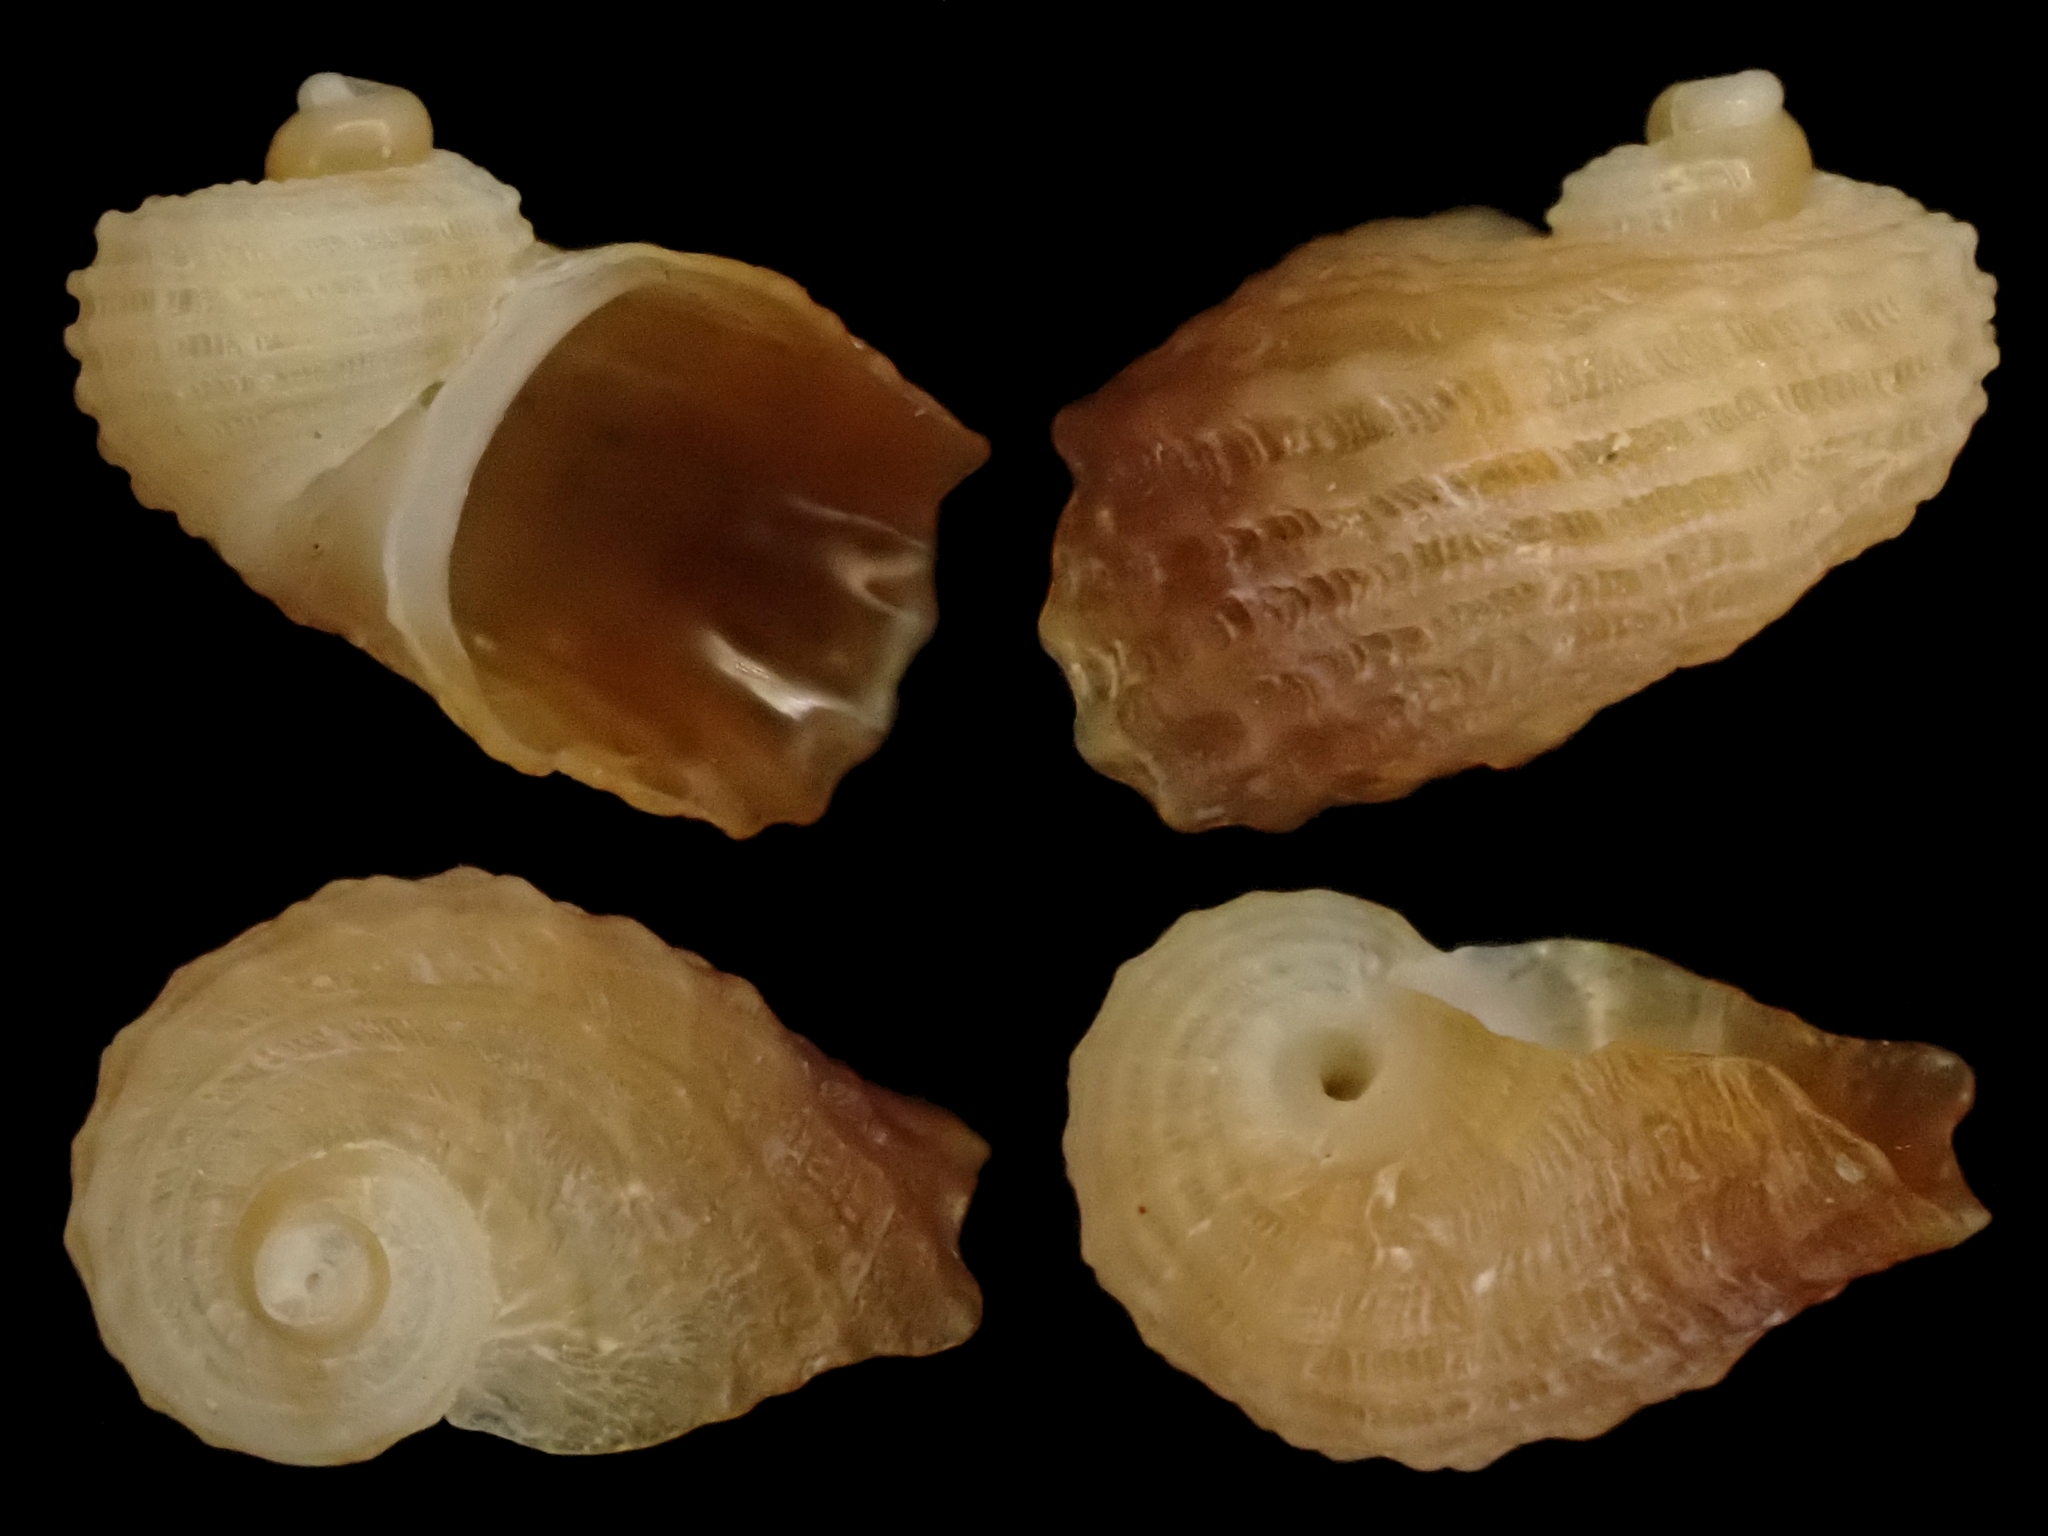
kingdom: Animalia
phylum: Mollusca
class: Gastropoda
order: Littorinimorpha
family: Capulidae
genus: Zelippistes
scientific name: Zelippistes benhami
